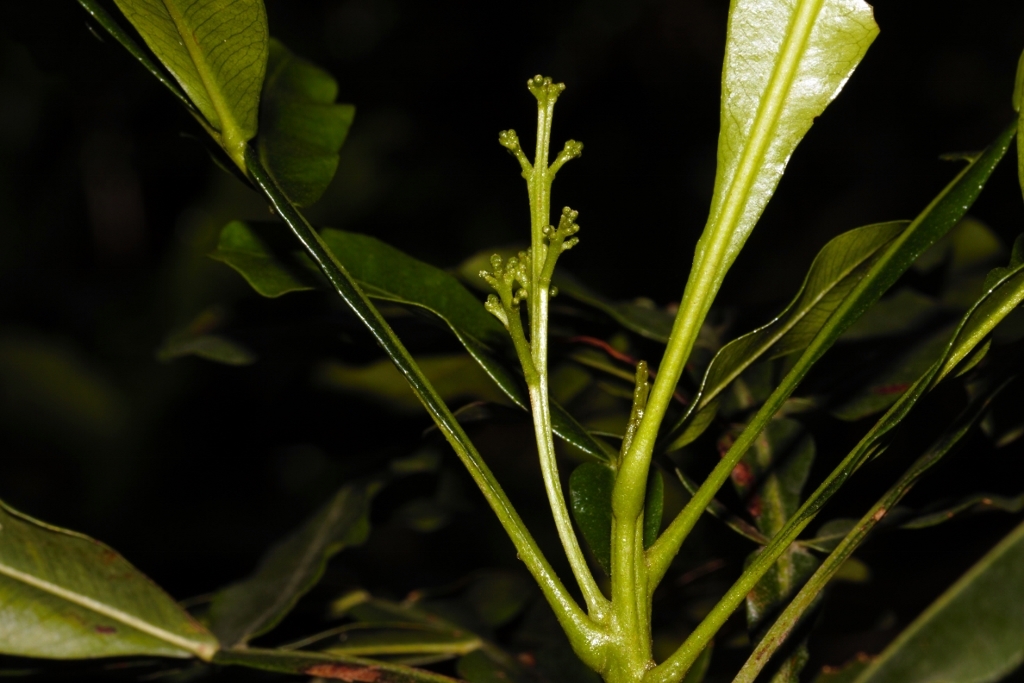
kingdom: Plantae
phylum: Tracheophyta
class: Magnoliopsida
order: Sapindales
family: Sapindaceae
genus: Filicium
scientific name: Filicium decipiens
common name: Ferntree
